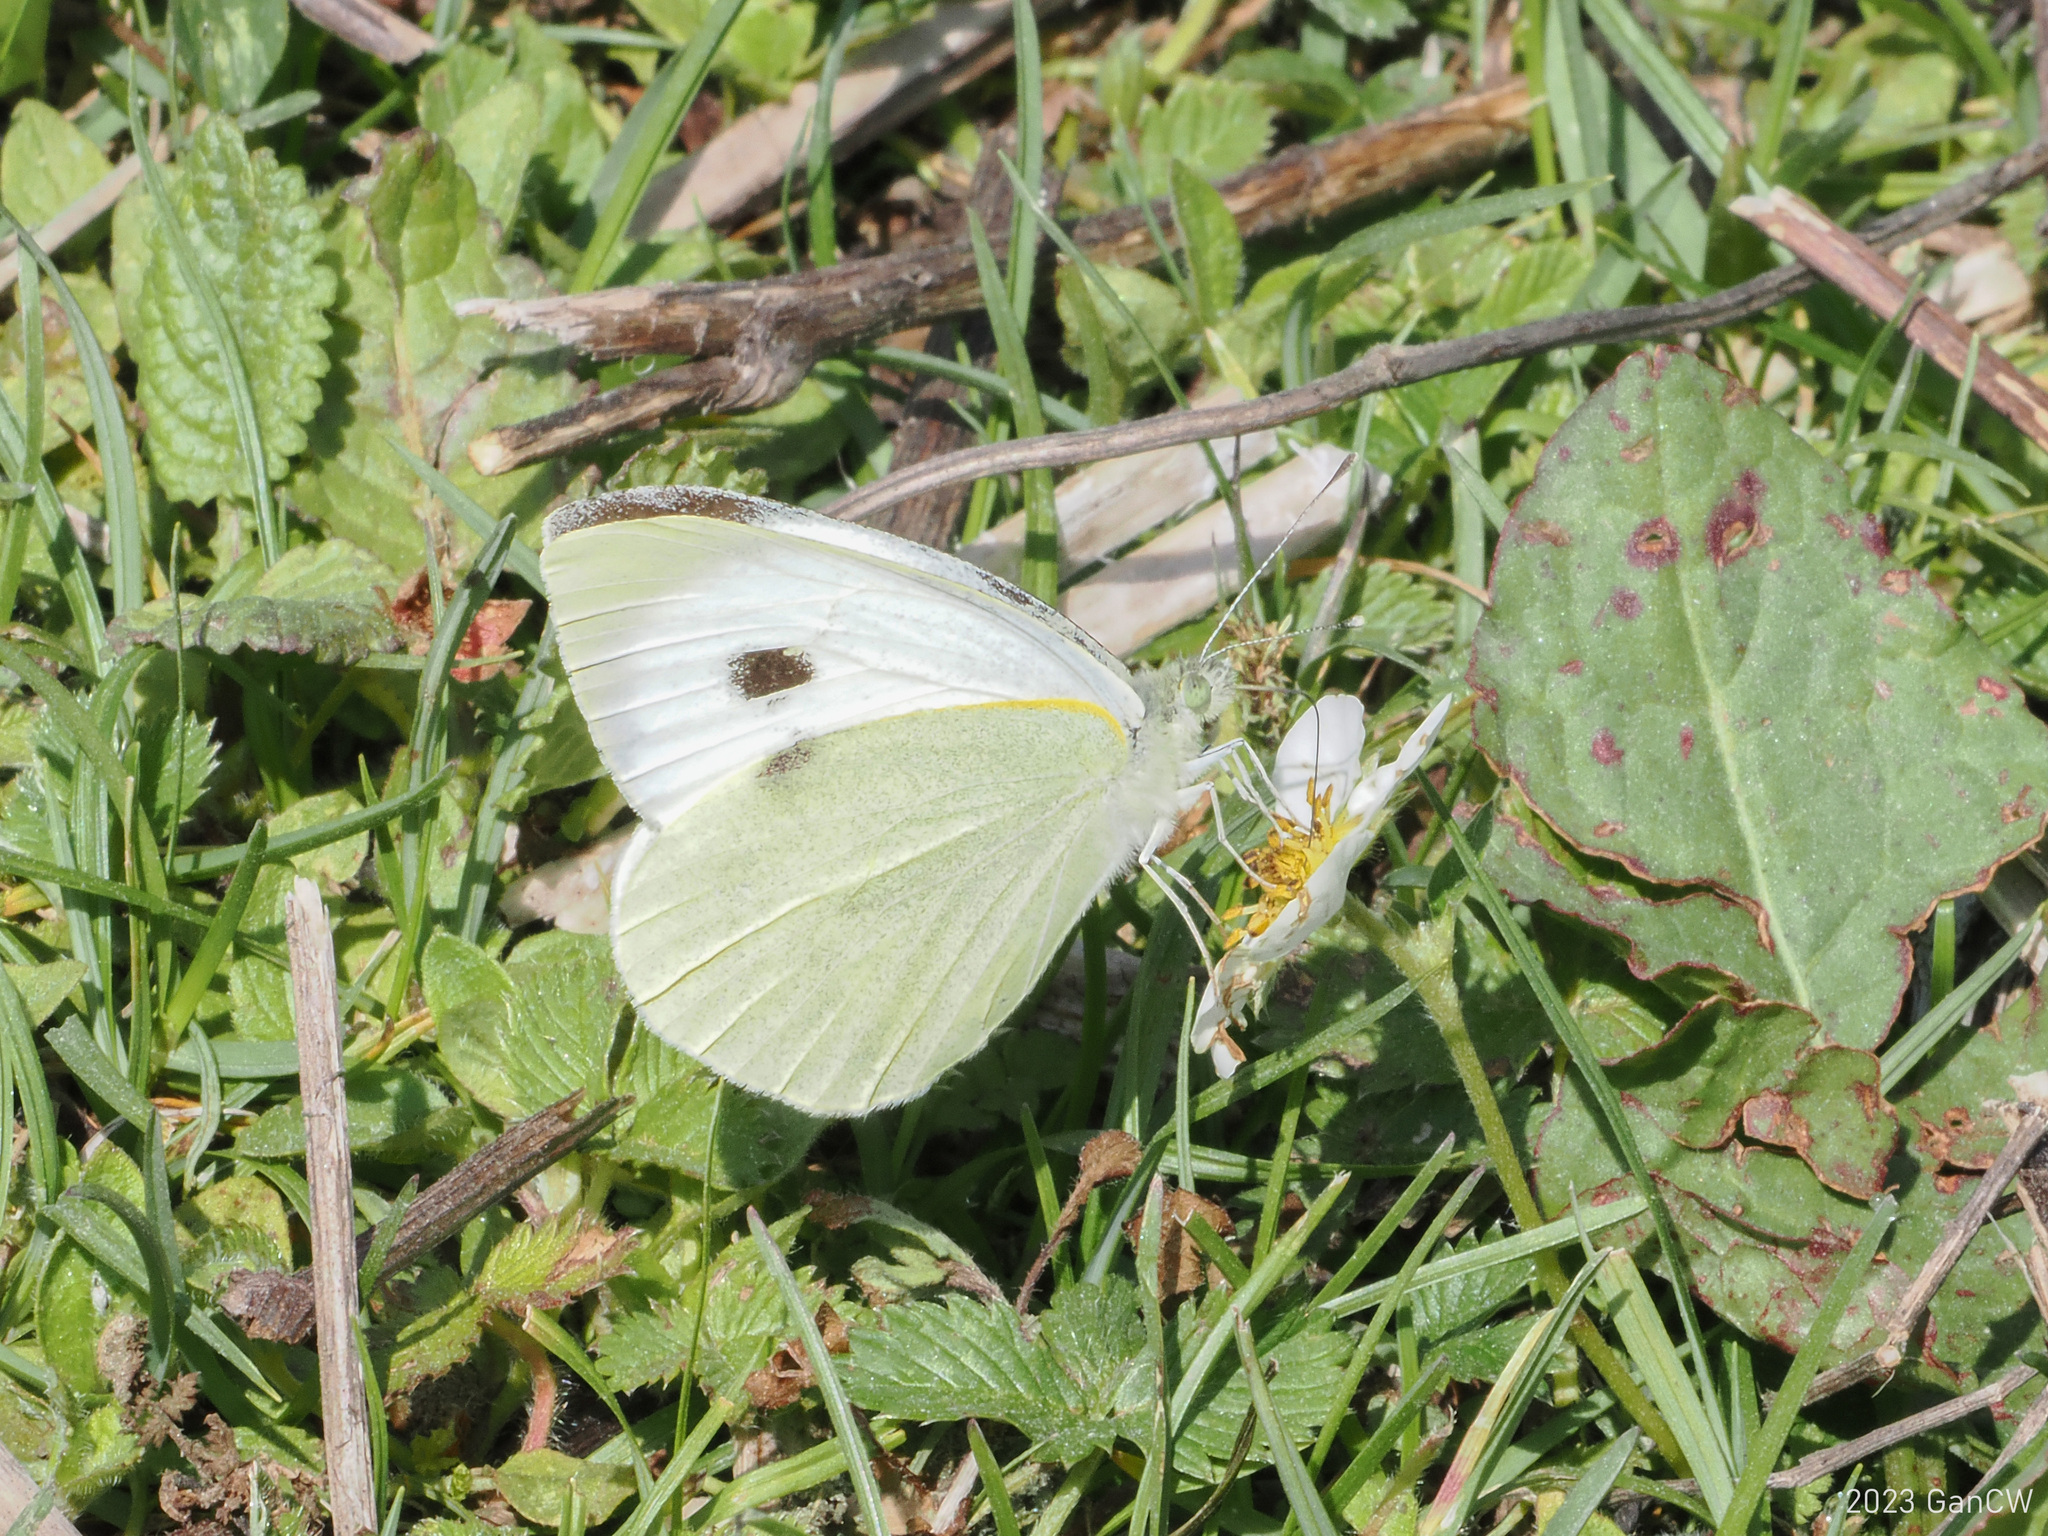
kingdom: Animalia
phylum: Arthropoda
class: Insecta
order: Lepidoptera
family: Pieridae
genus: Pieris
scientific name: Pieris brassicae
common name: Large white
